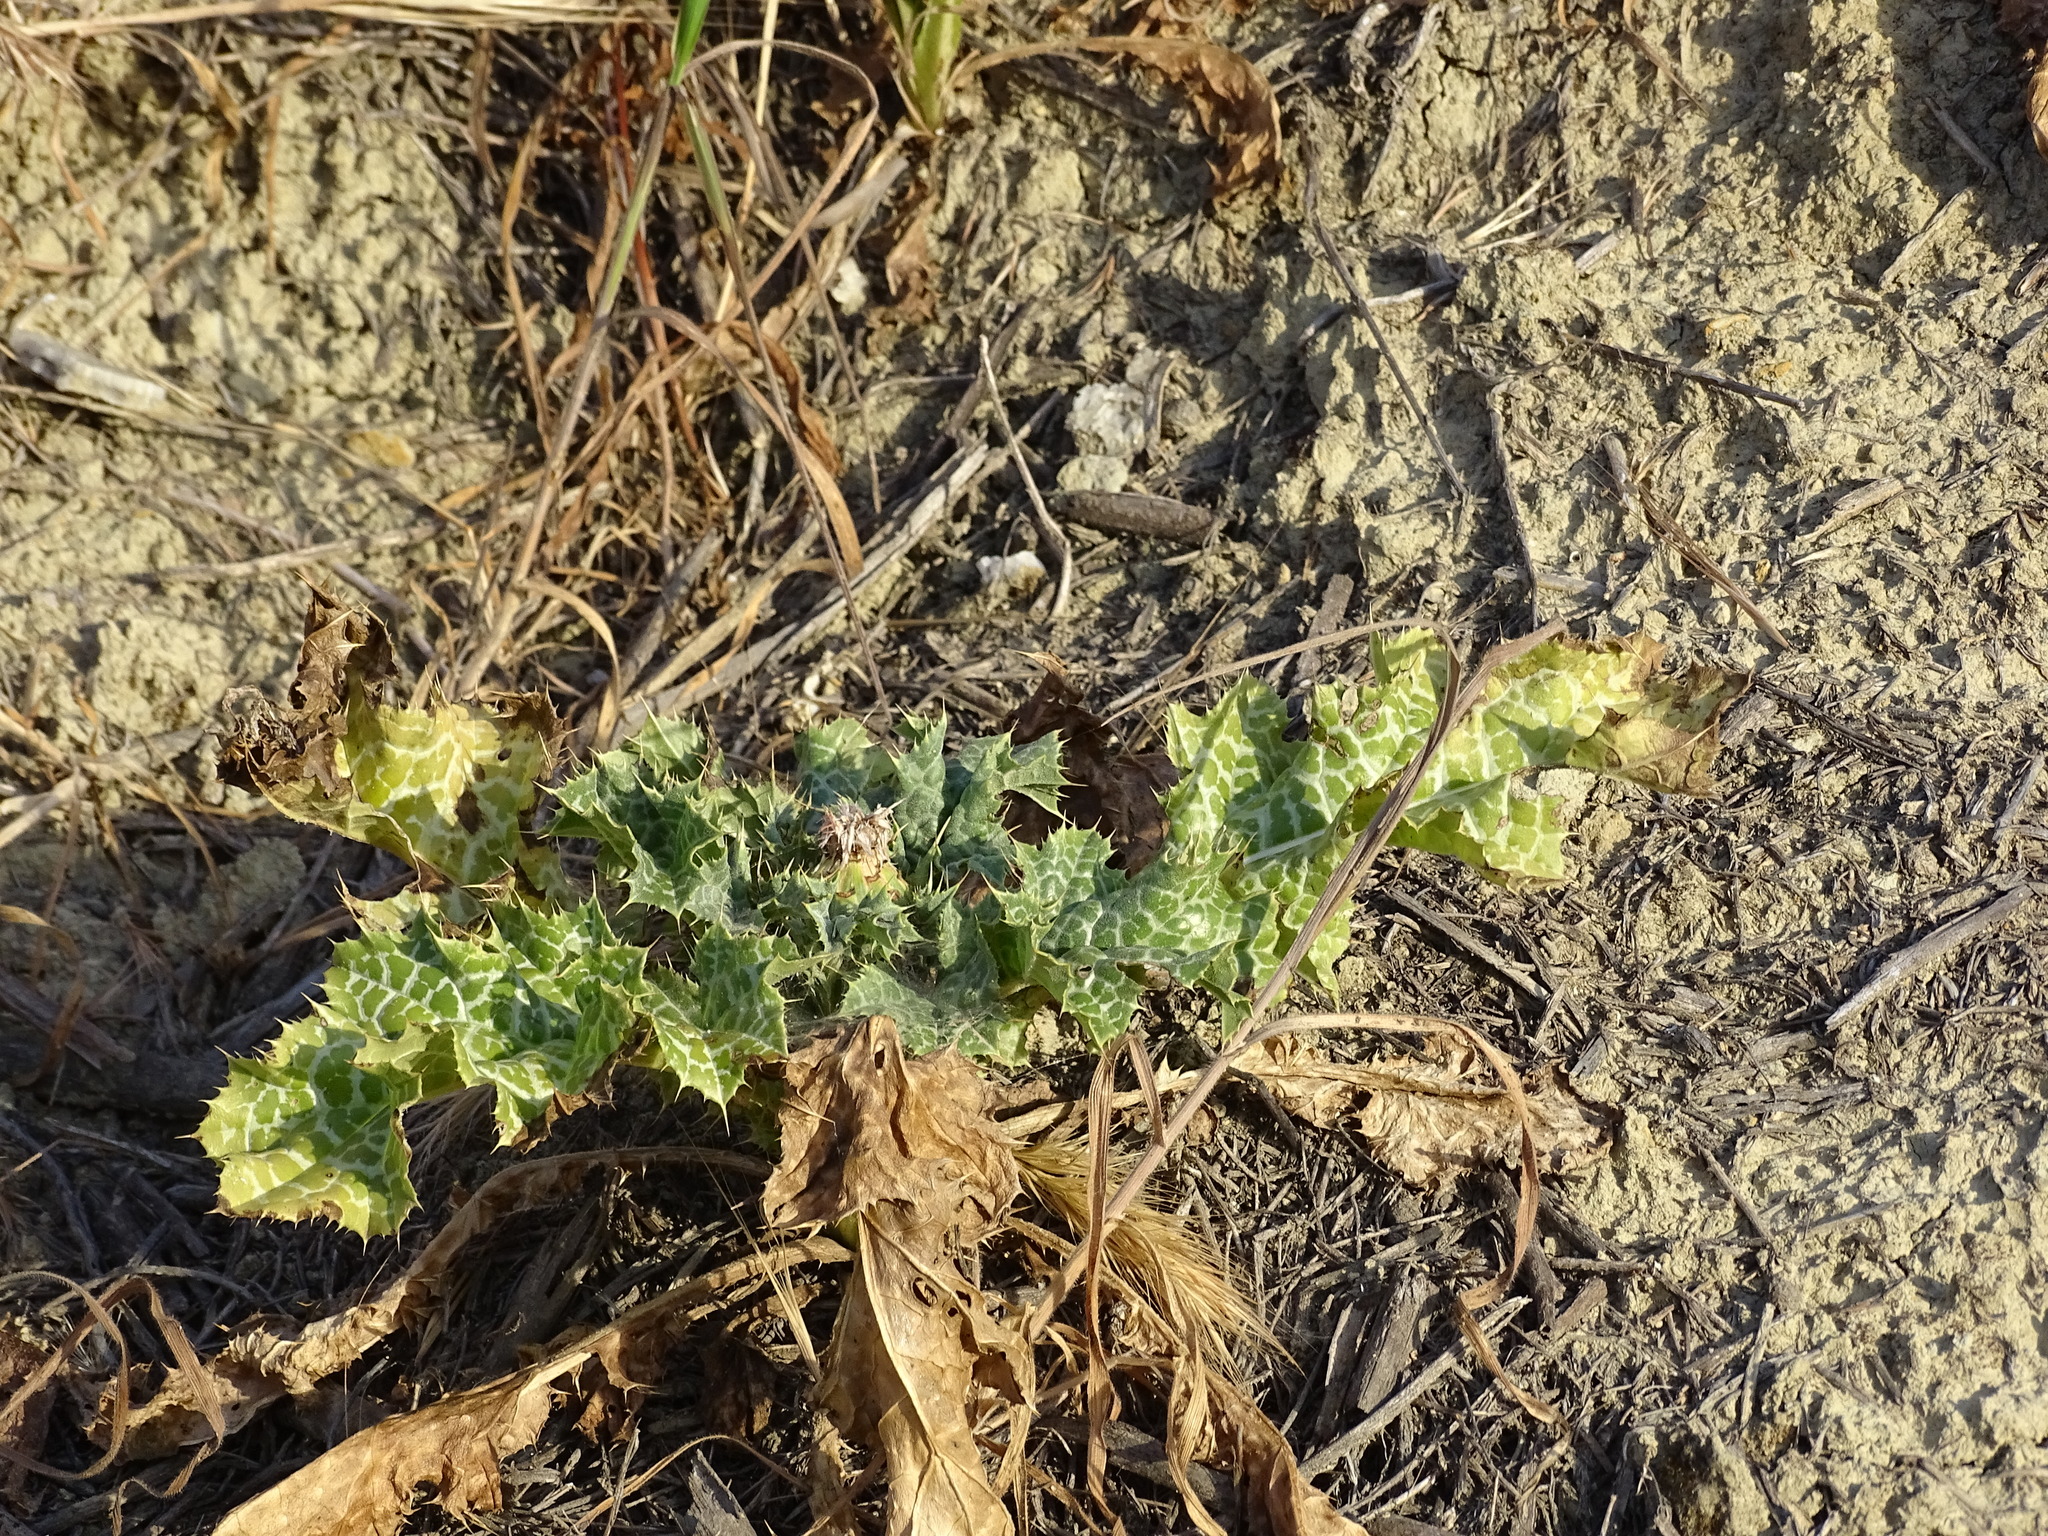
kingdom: Plantae
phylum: Tracheophyta
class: Magnoliopsida
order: Asterales
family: Asteraceae
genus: Silybum
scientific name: Silybum marianum
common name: Milk thistle
